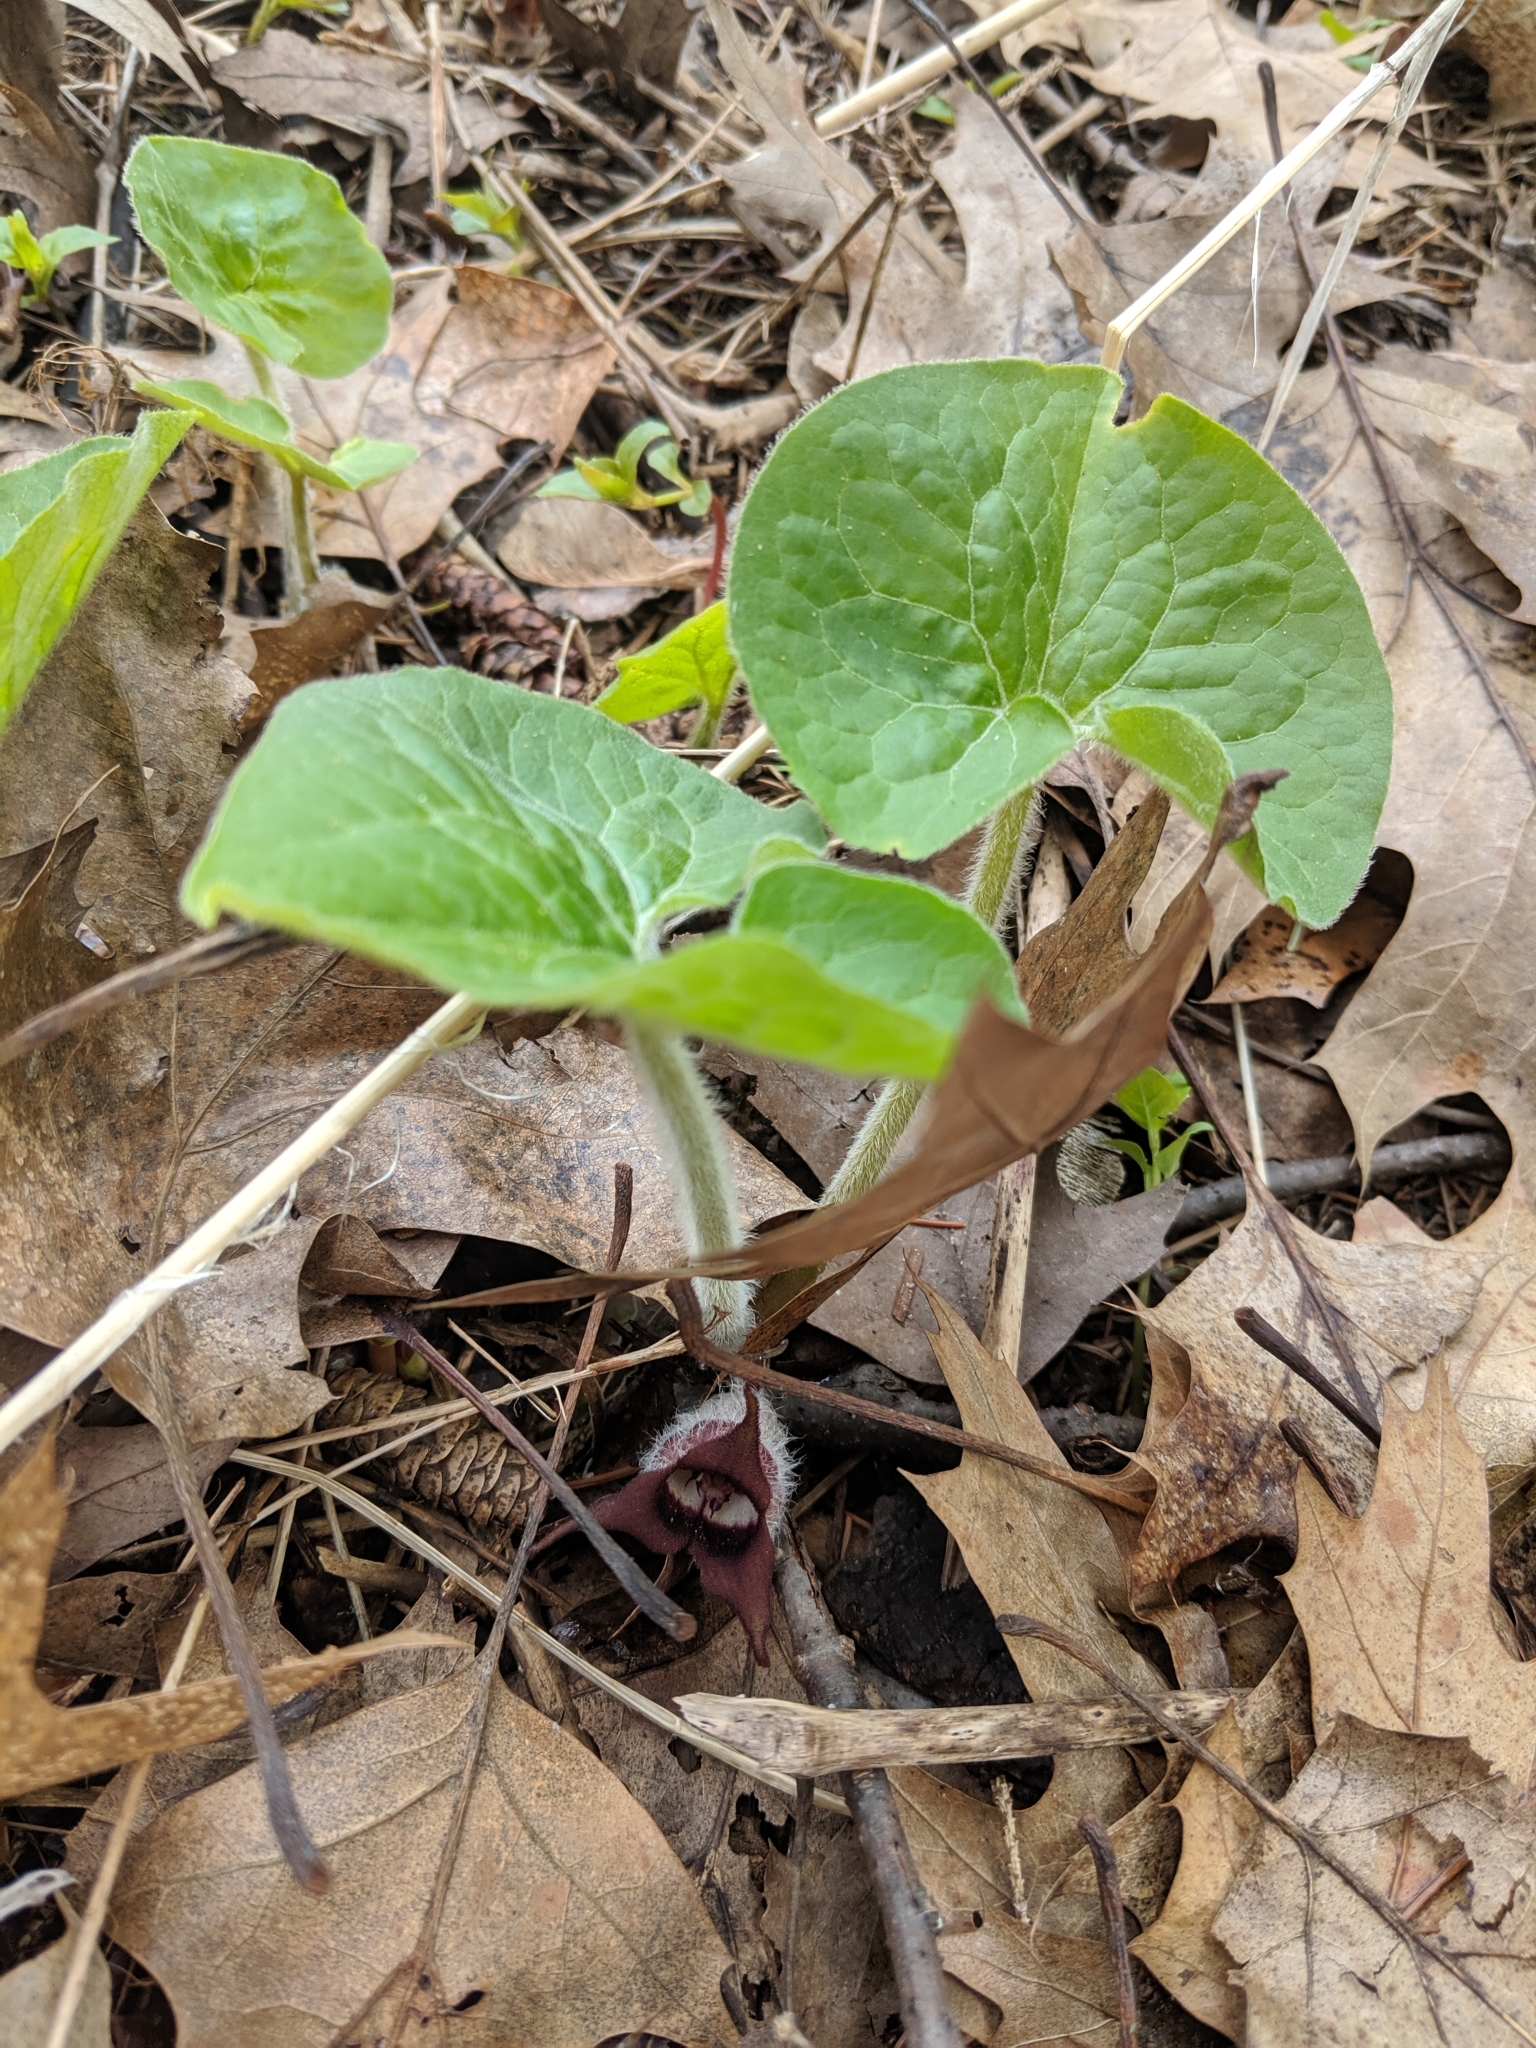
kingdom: Plantae
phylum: Tracheophyta
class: Magnoliopsida
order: Piperales
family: Aristolochiaceae
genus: Asarum
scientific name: Asarum canadense
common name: Wild ginger
